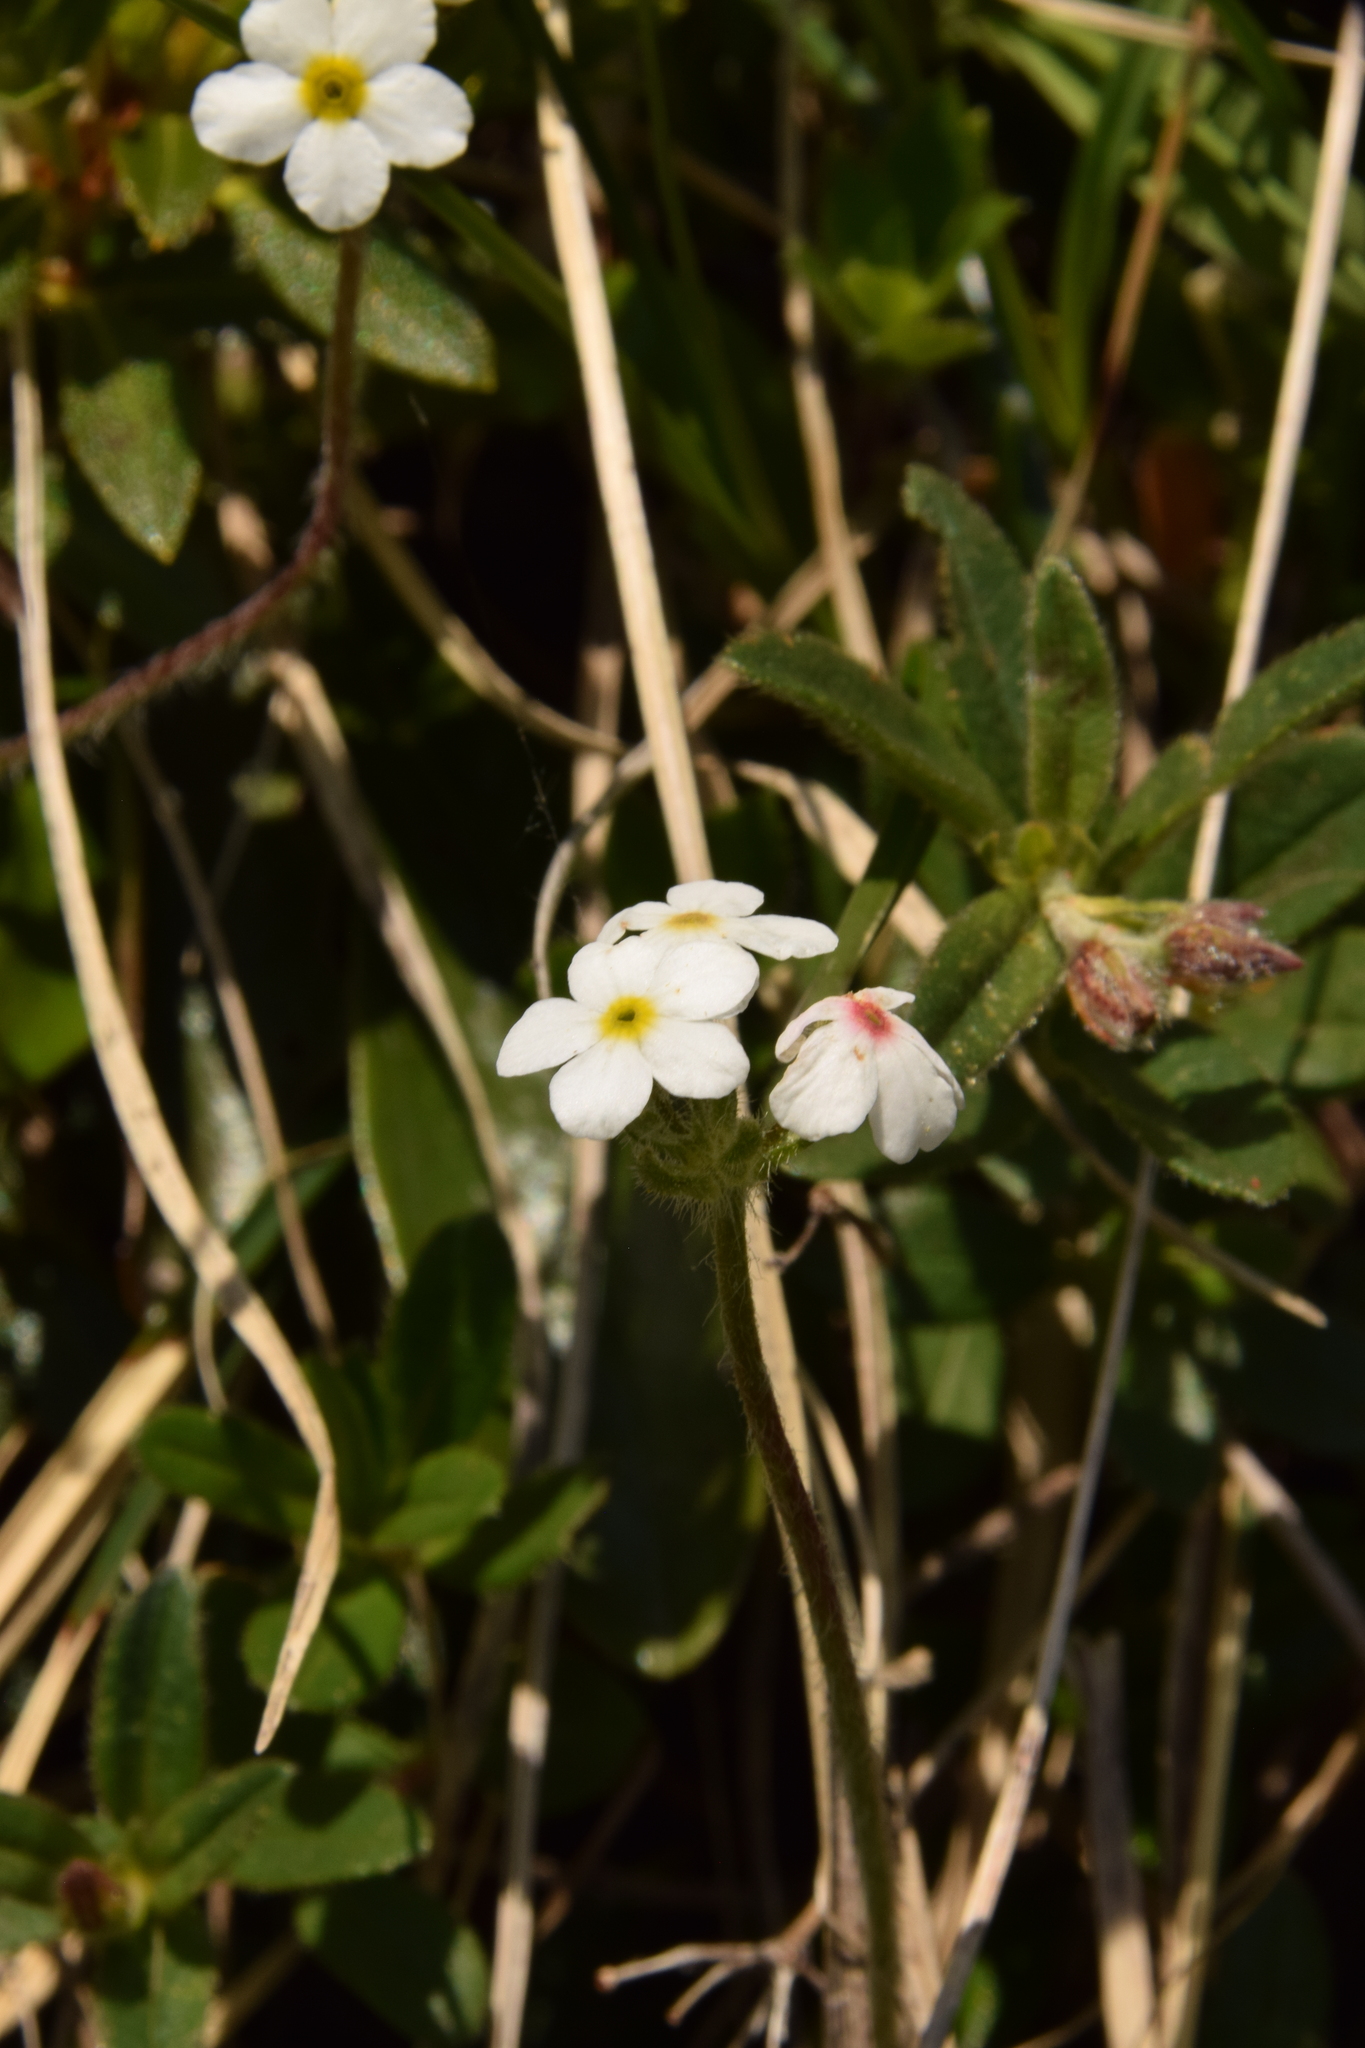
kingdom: Plantae
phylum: Tracheophyta
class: Magnoliopsida
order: Ericales
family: Primulaceae
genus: Androsace
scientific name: Androsace chamaejasme
